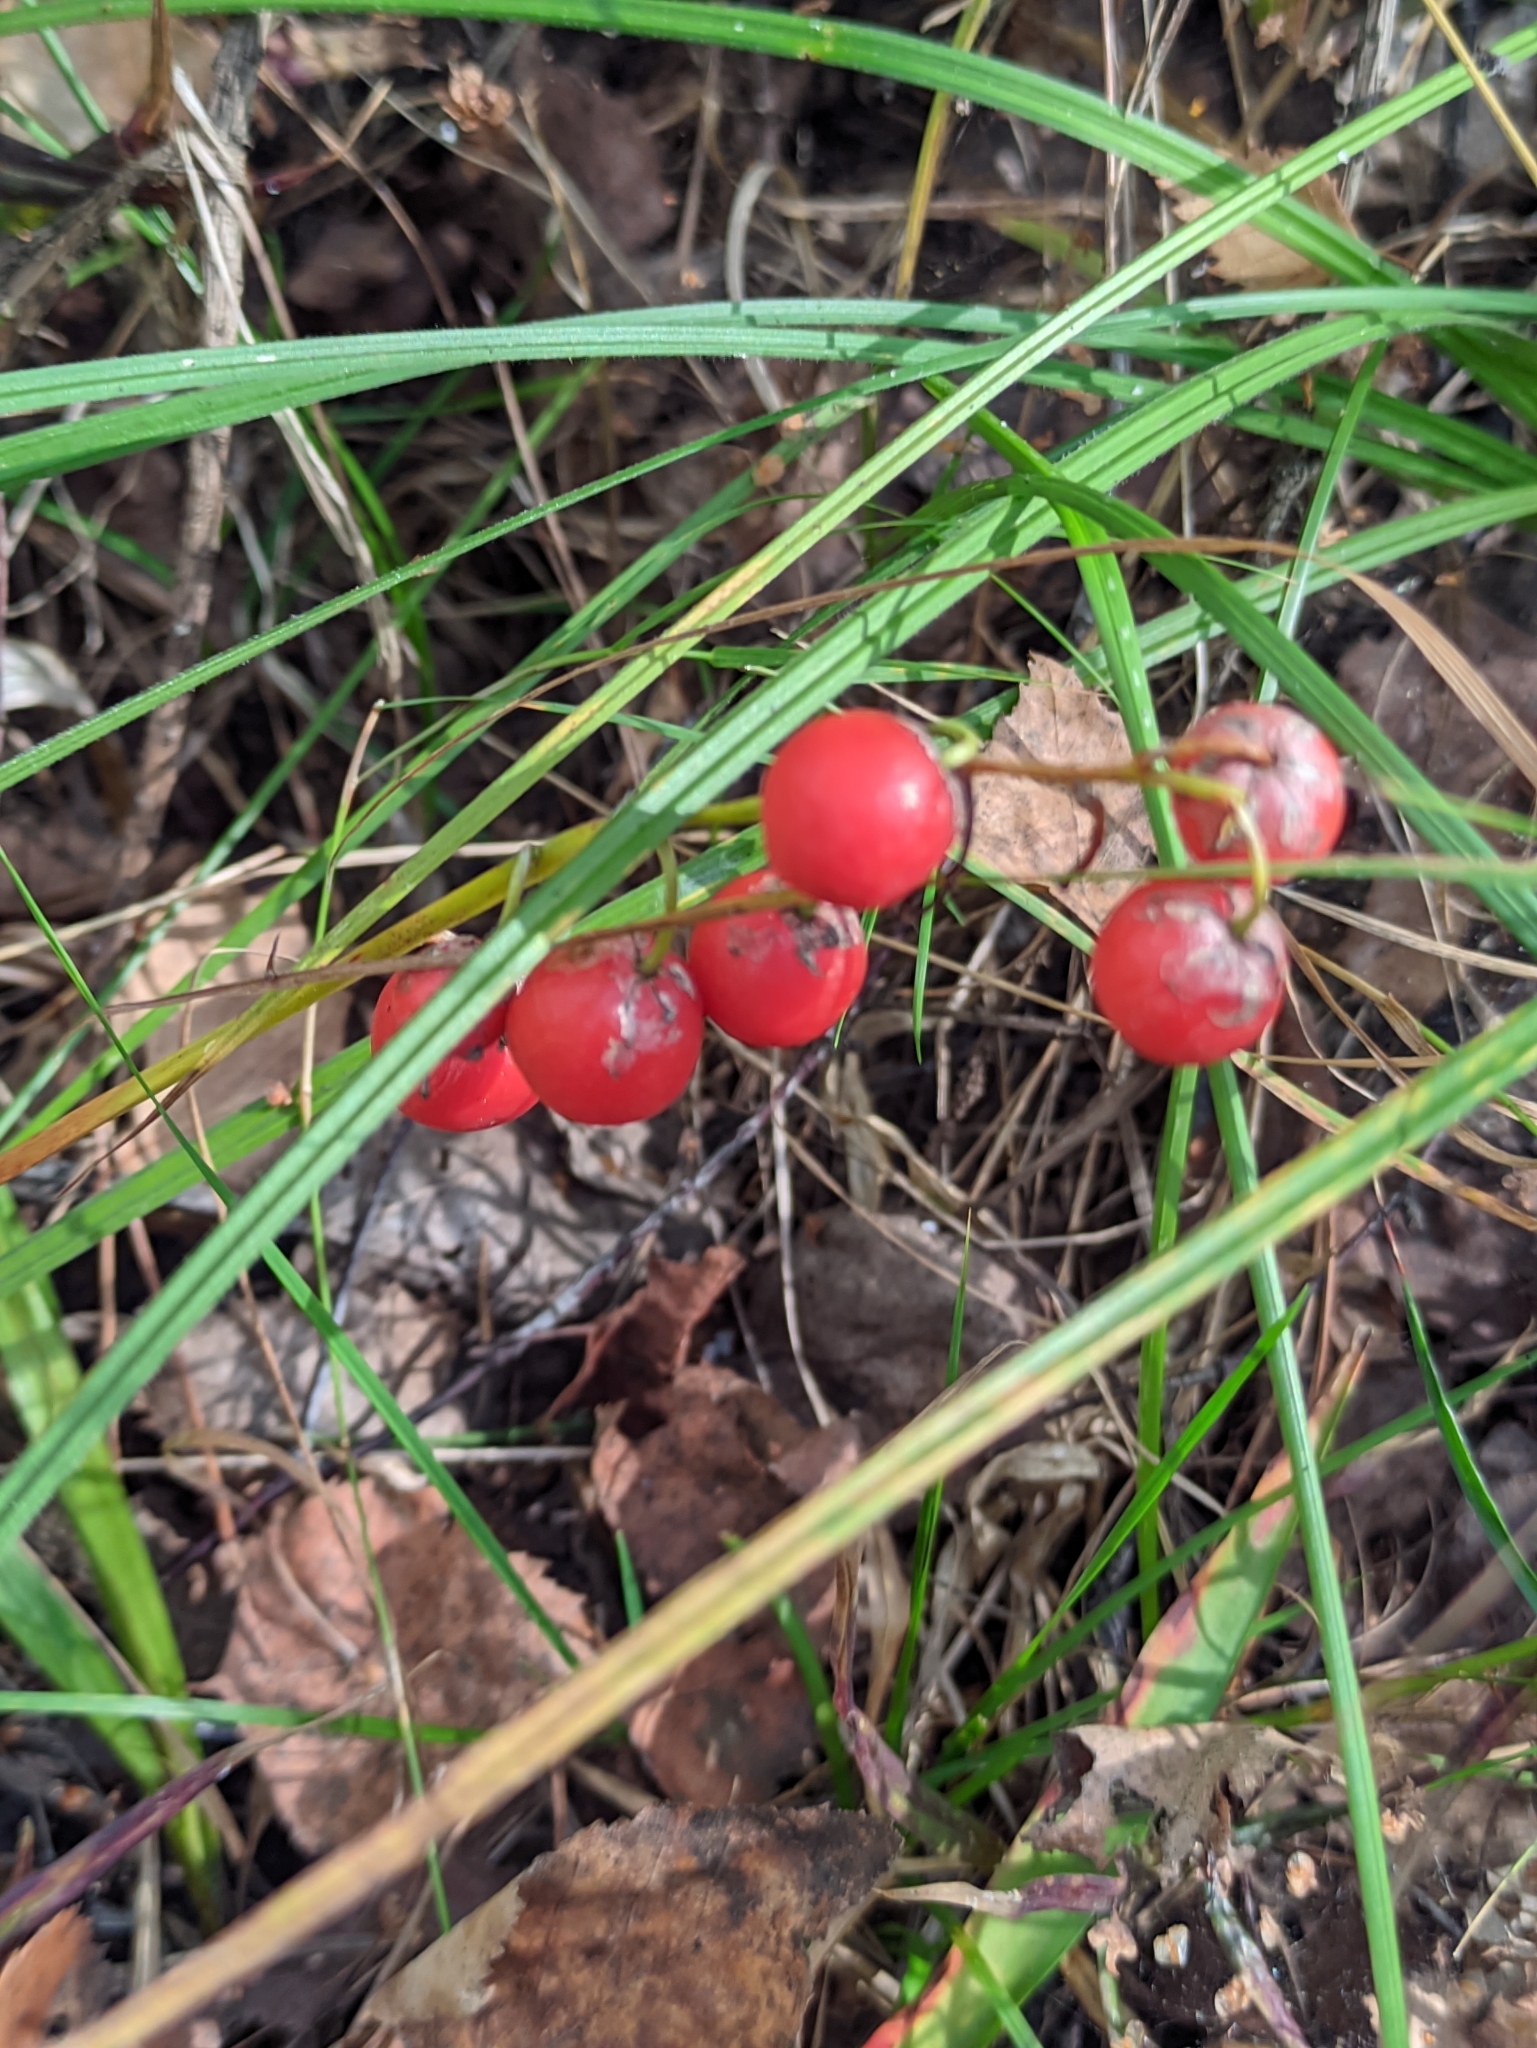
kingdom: Plantae
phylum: Tracheophyta
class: Liliopsida
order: Asparagales
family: Asparagaceae
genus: Convallaria
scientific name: Convallaria majalis
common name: Lily-of-the-valley
